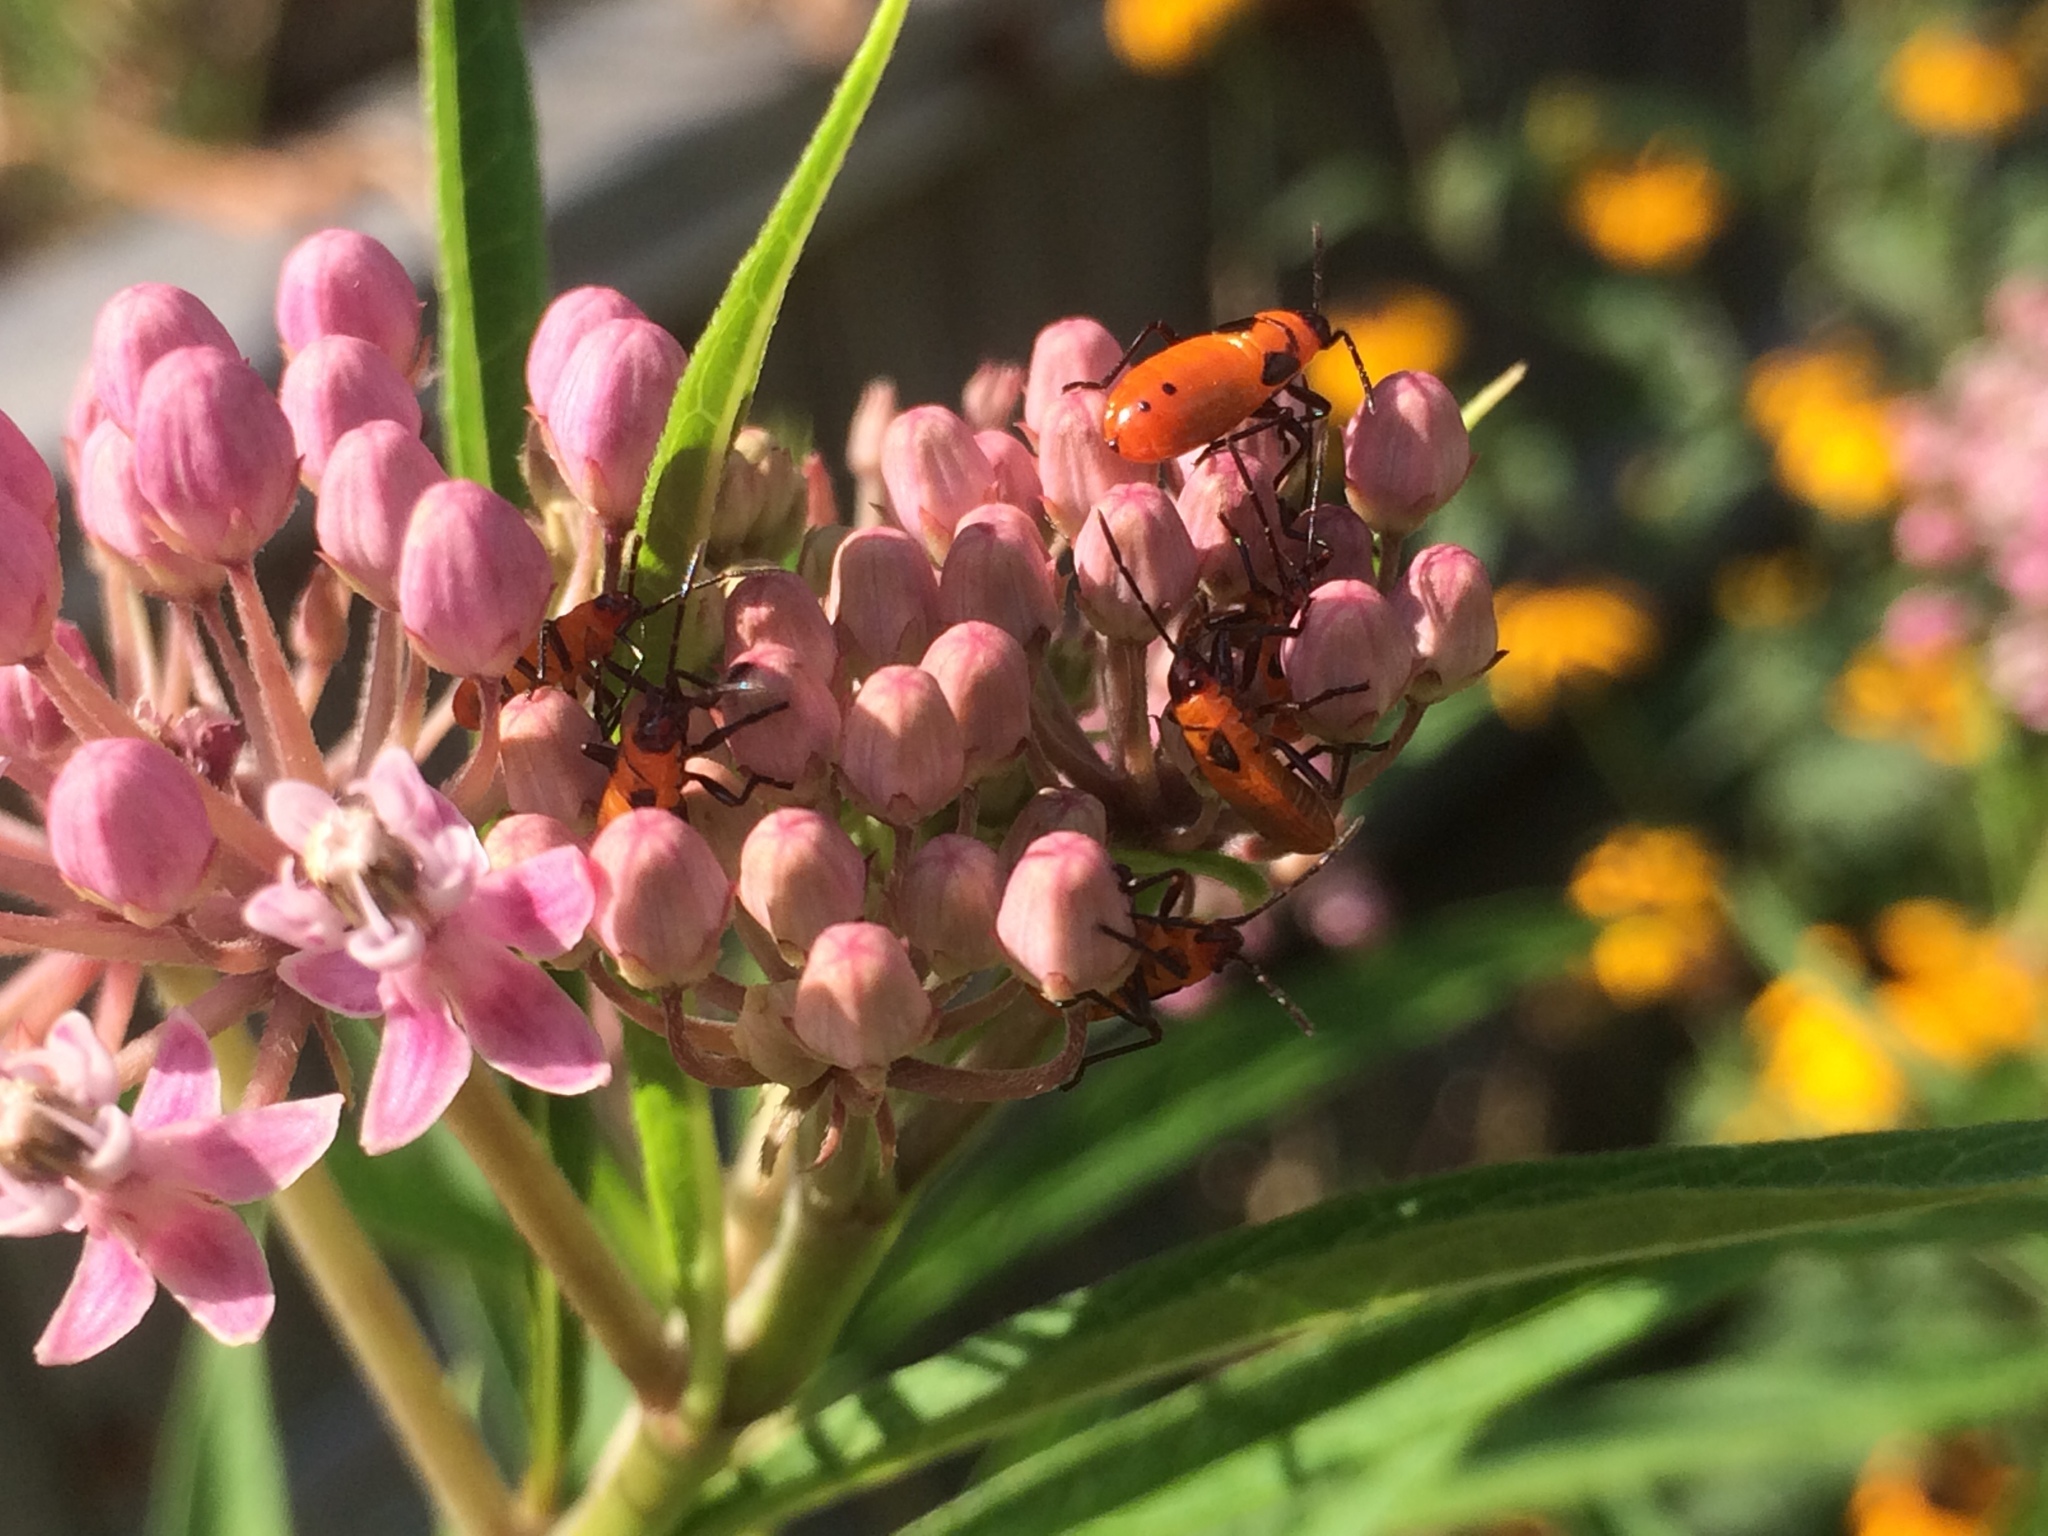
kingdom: Animalia
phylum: Arthropoda
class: Insecta
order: Hemiptera
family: Lygaeidae
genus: Oncopeltus
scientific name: Oncopeltus fasciatus
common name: Large milkweed bug
